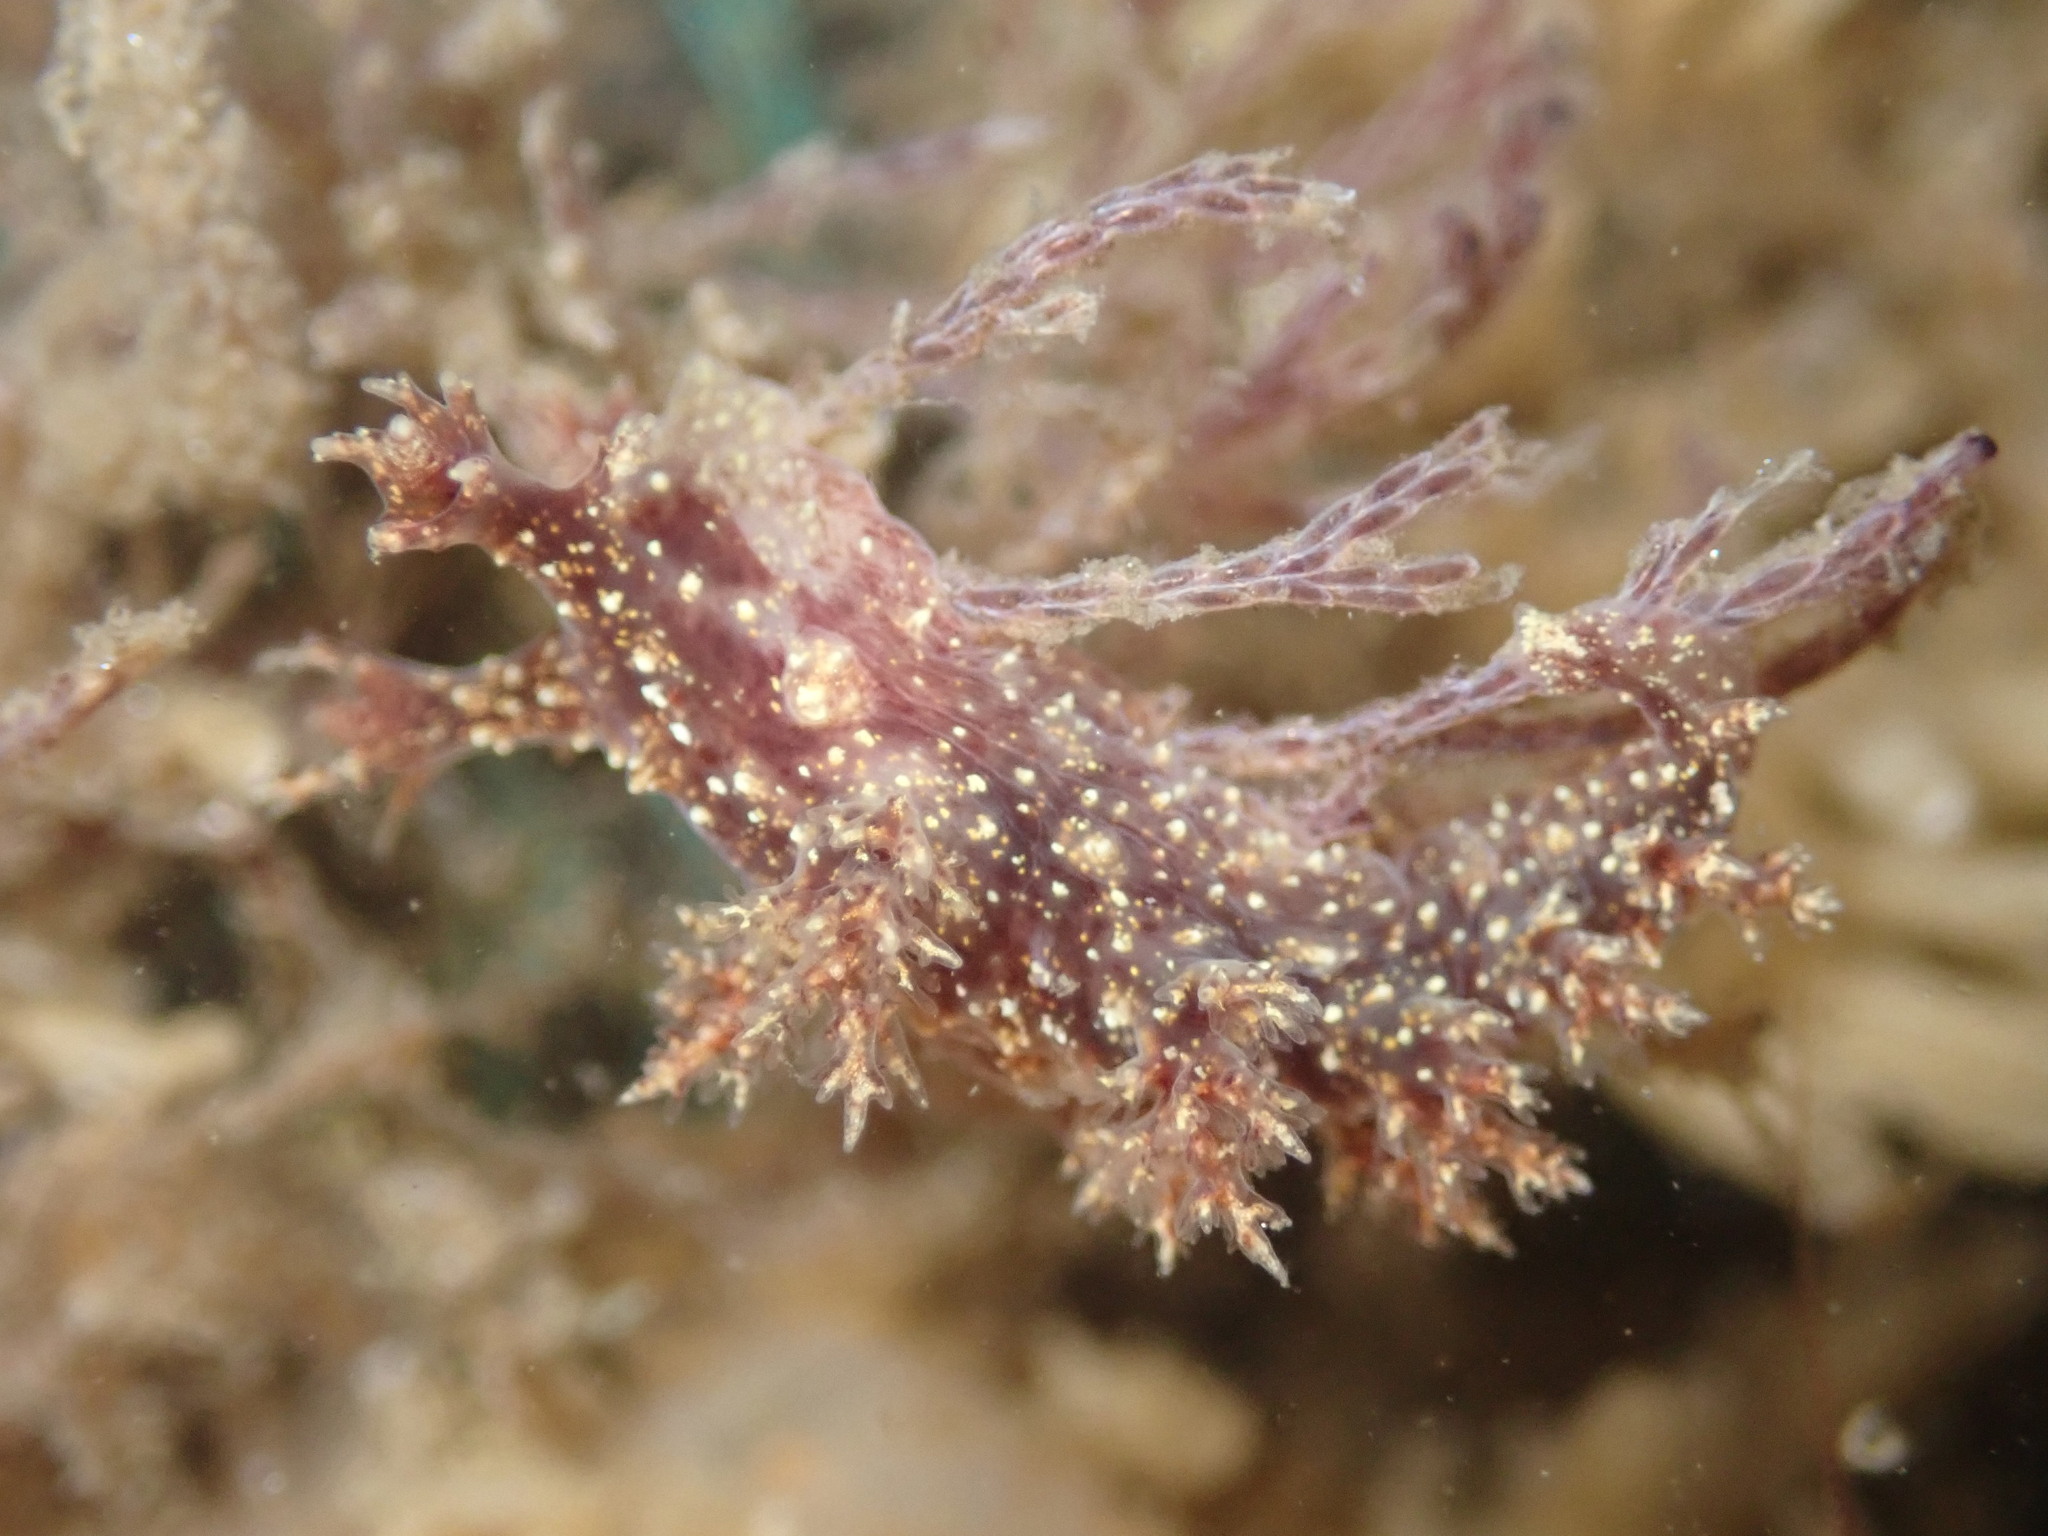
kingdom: Animalia
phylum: Mollusca
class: Gastropoda
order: Nudibranchia
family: Dendronotidae
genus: Dendronotus
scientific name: Dendronotus venustus
